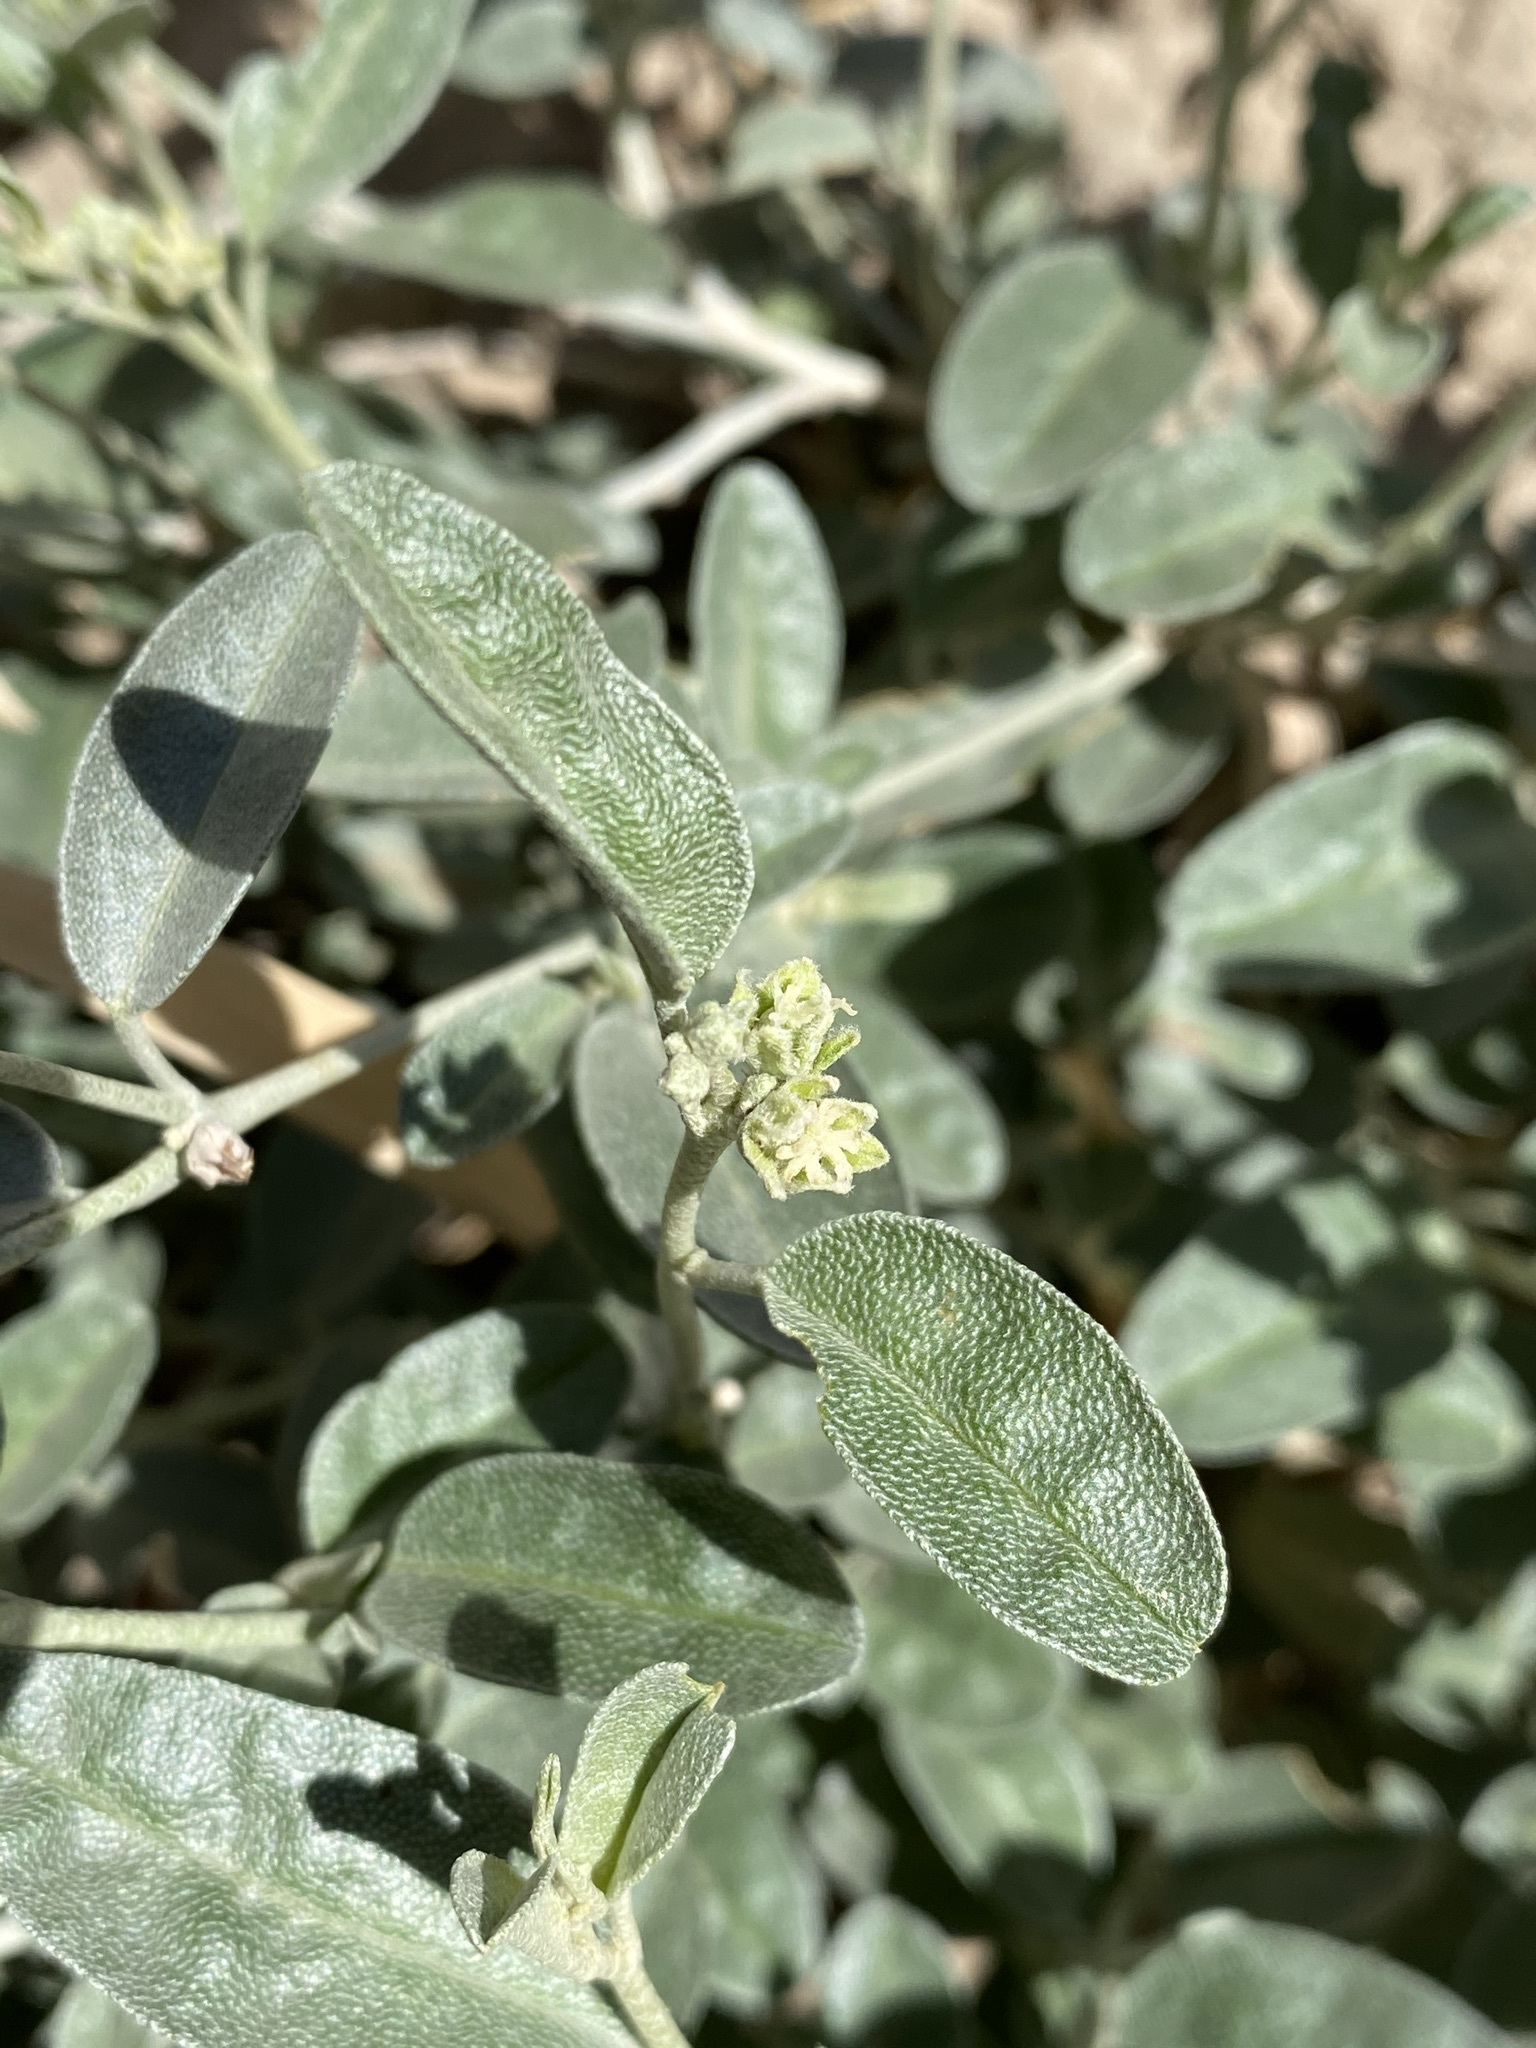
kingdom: Plantae
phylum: Tracheophyta
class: Magnoliopsida
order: Malpighiales
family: Euphorbiaceae
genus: Croton
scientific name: Croton dioicus
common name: Grassland croton
